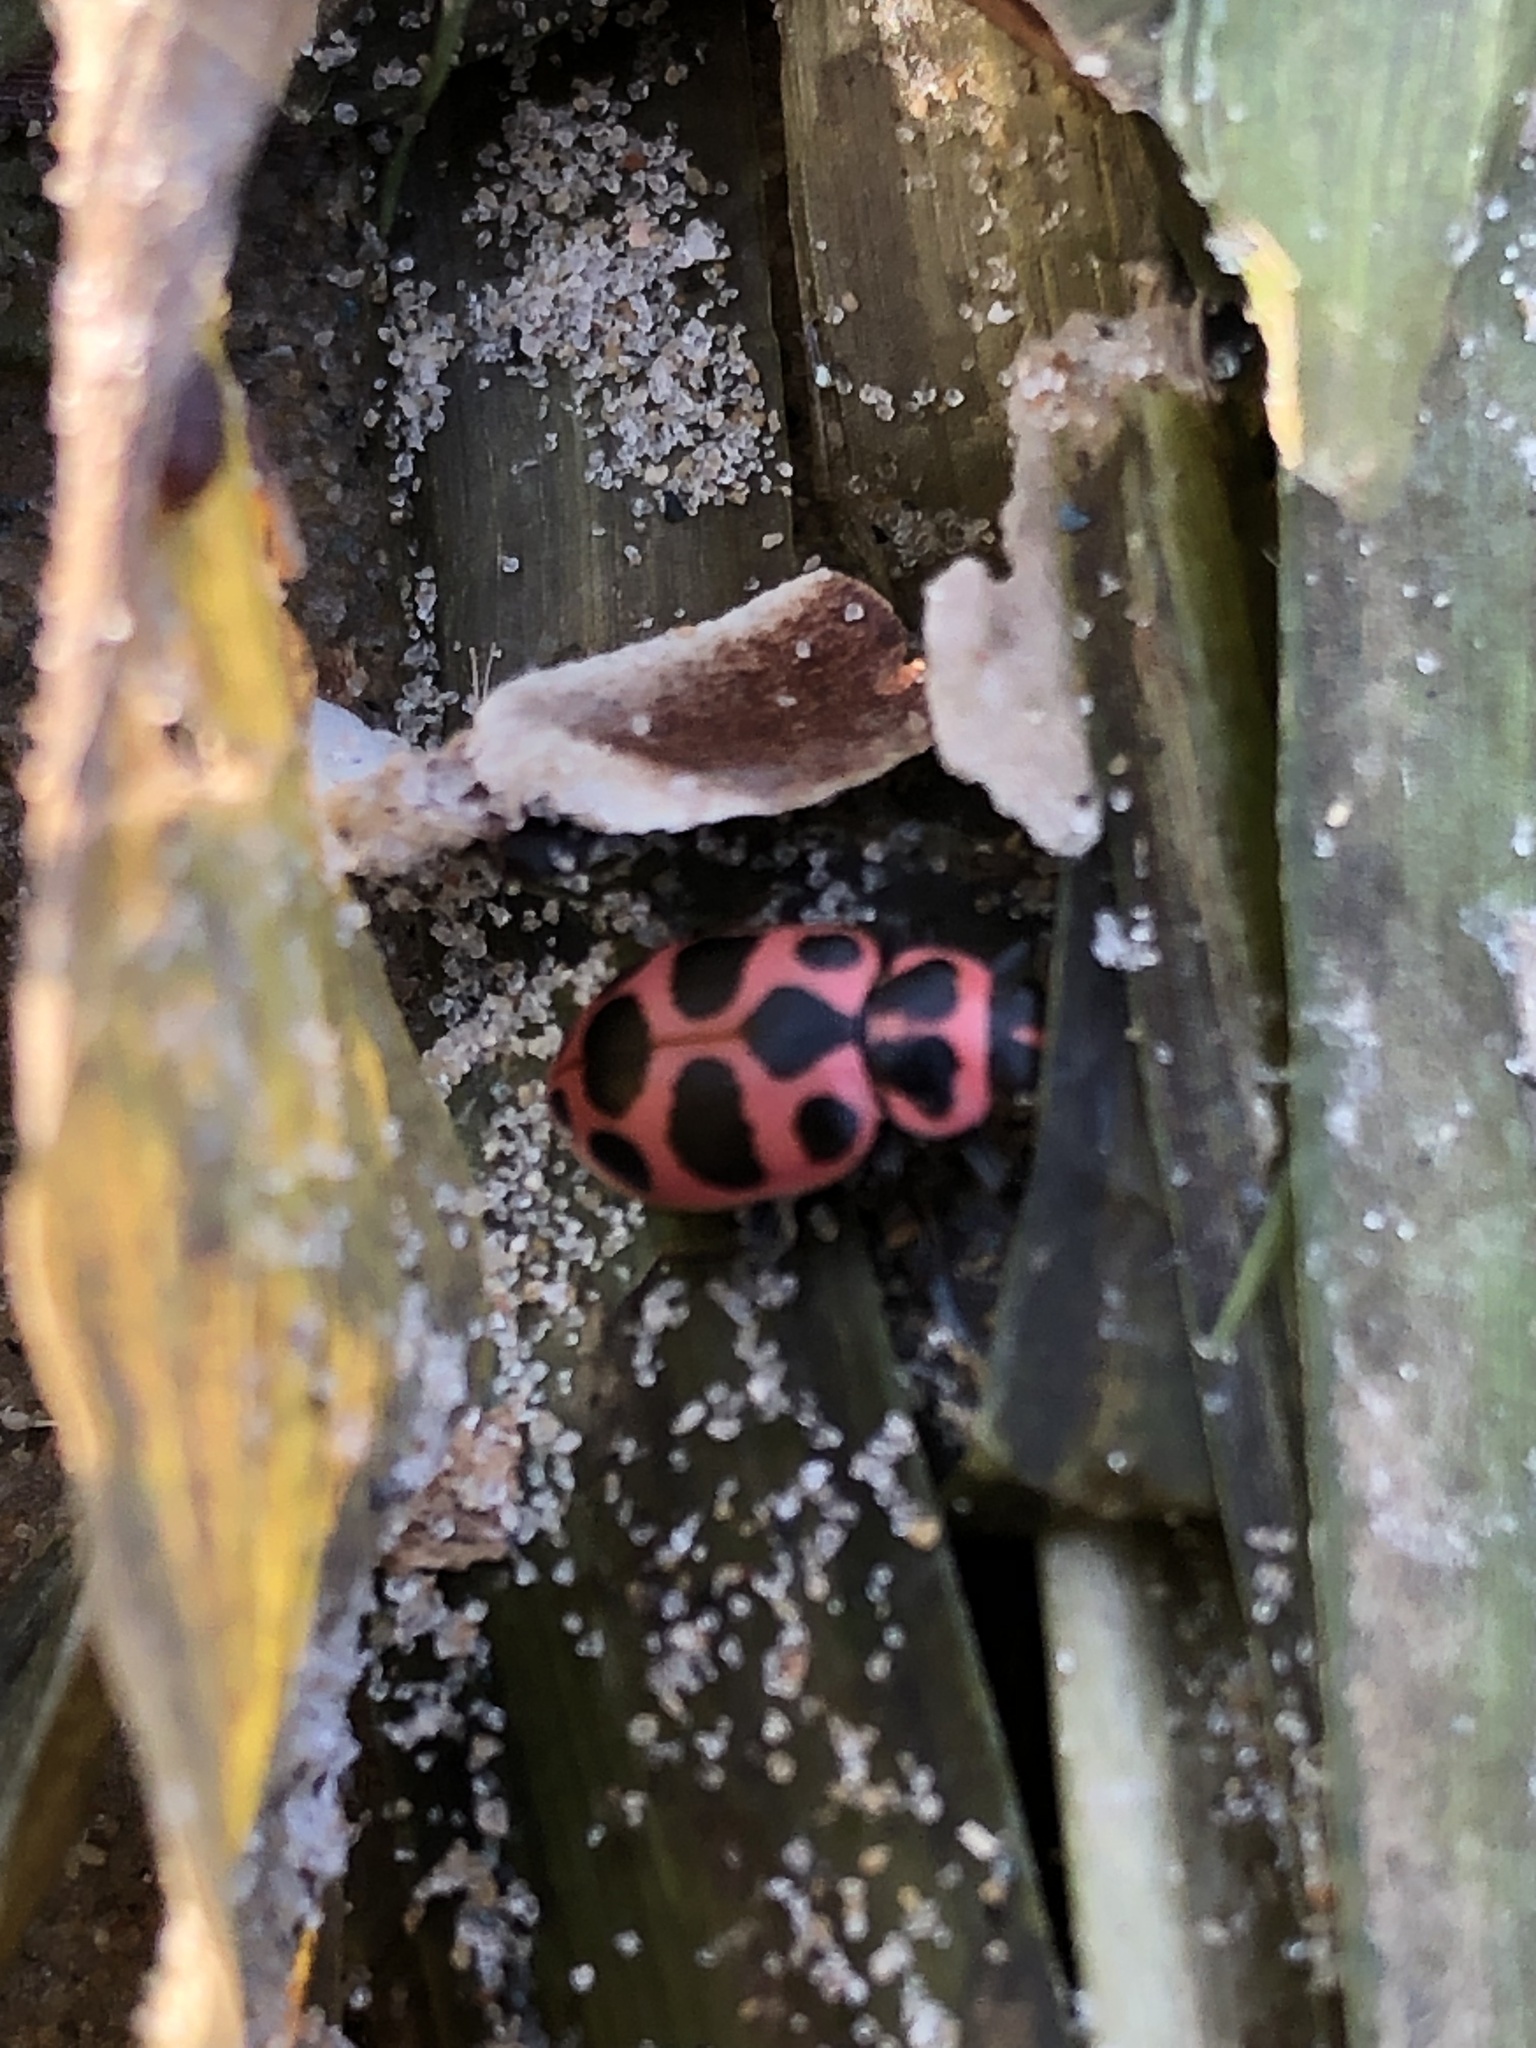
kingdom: Animalia
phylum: Arthropoda
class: Insecta
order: Coleoptera
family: Coccinellidae
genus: Coleomegilla
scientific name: Coleomegilla maculata
